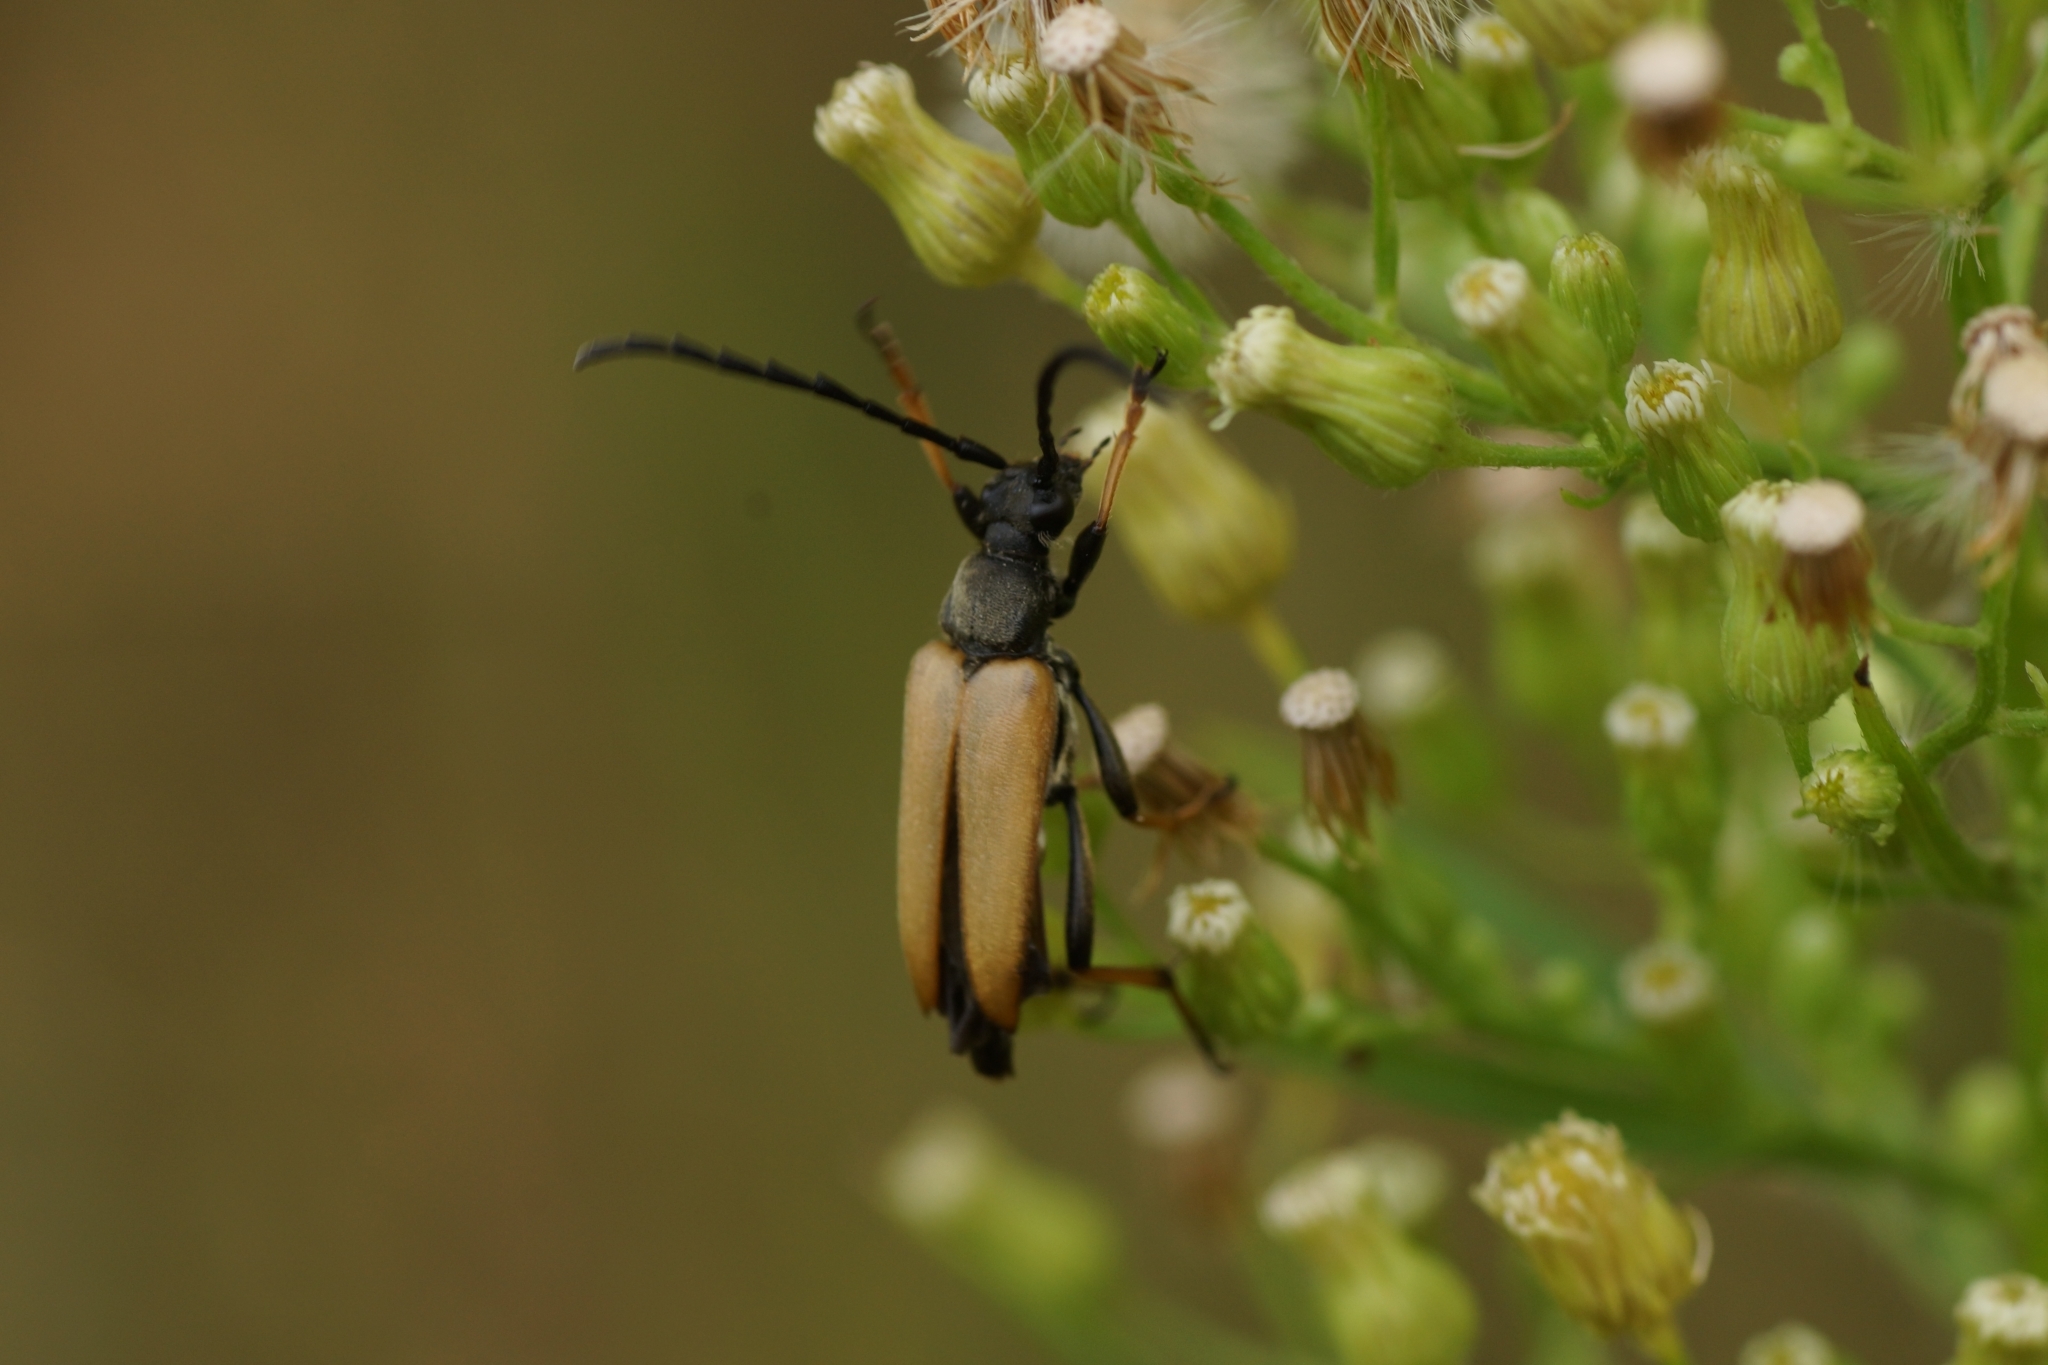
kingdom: Animalia
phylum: Arthropoda
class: Insecta
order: Coleoptera
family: Cerambycidae
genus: Stictoleptura
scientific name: Stictoleptura rubra
